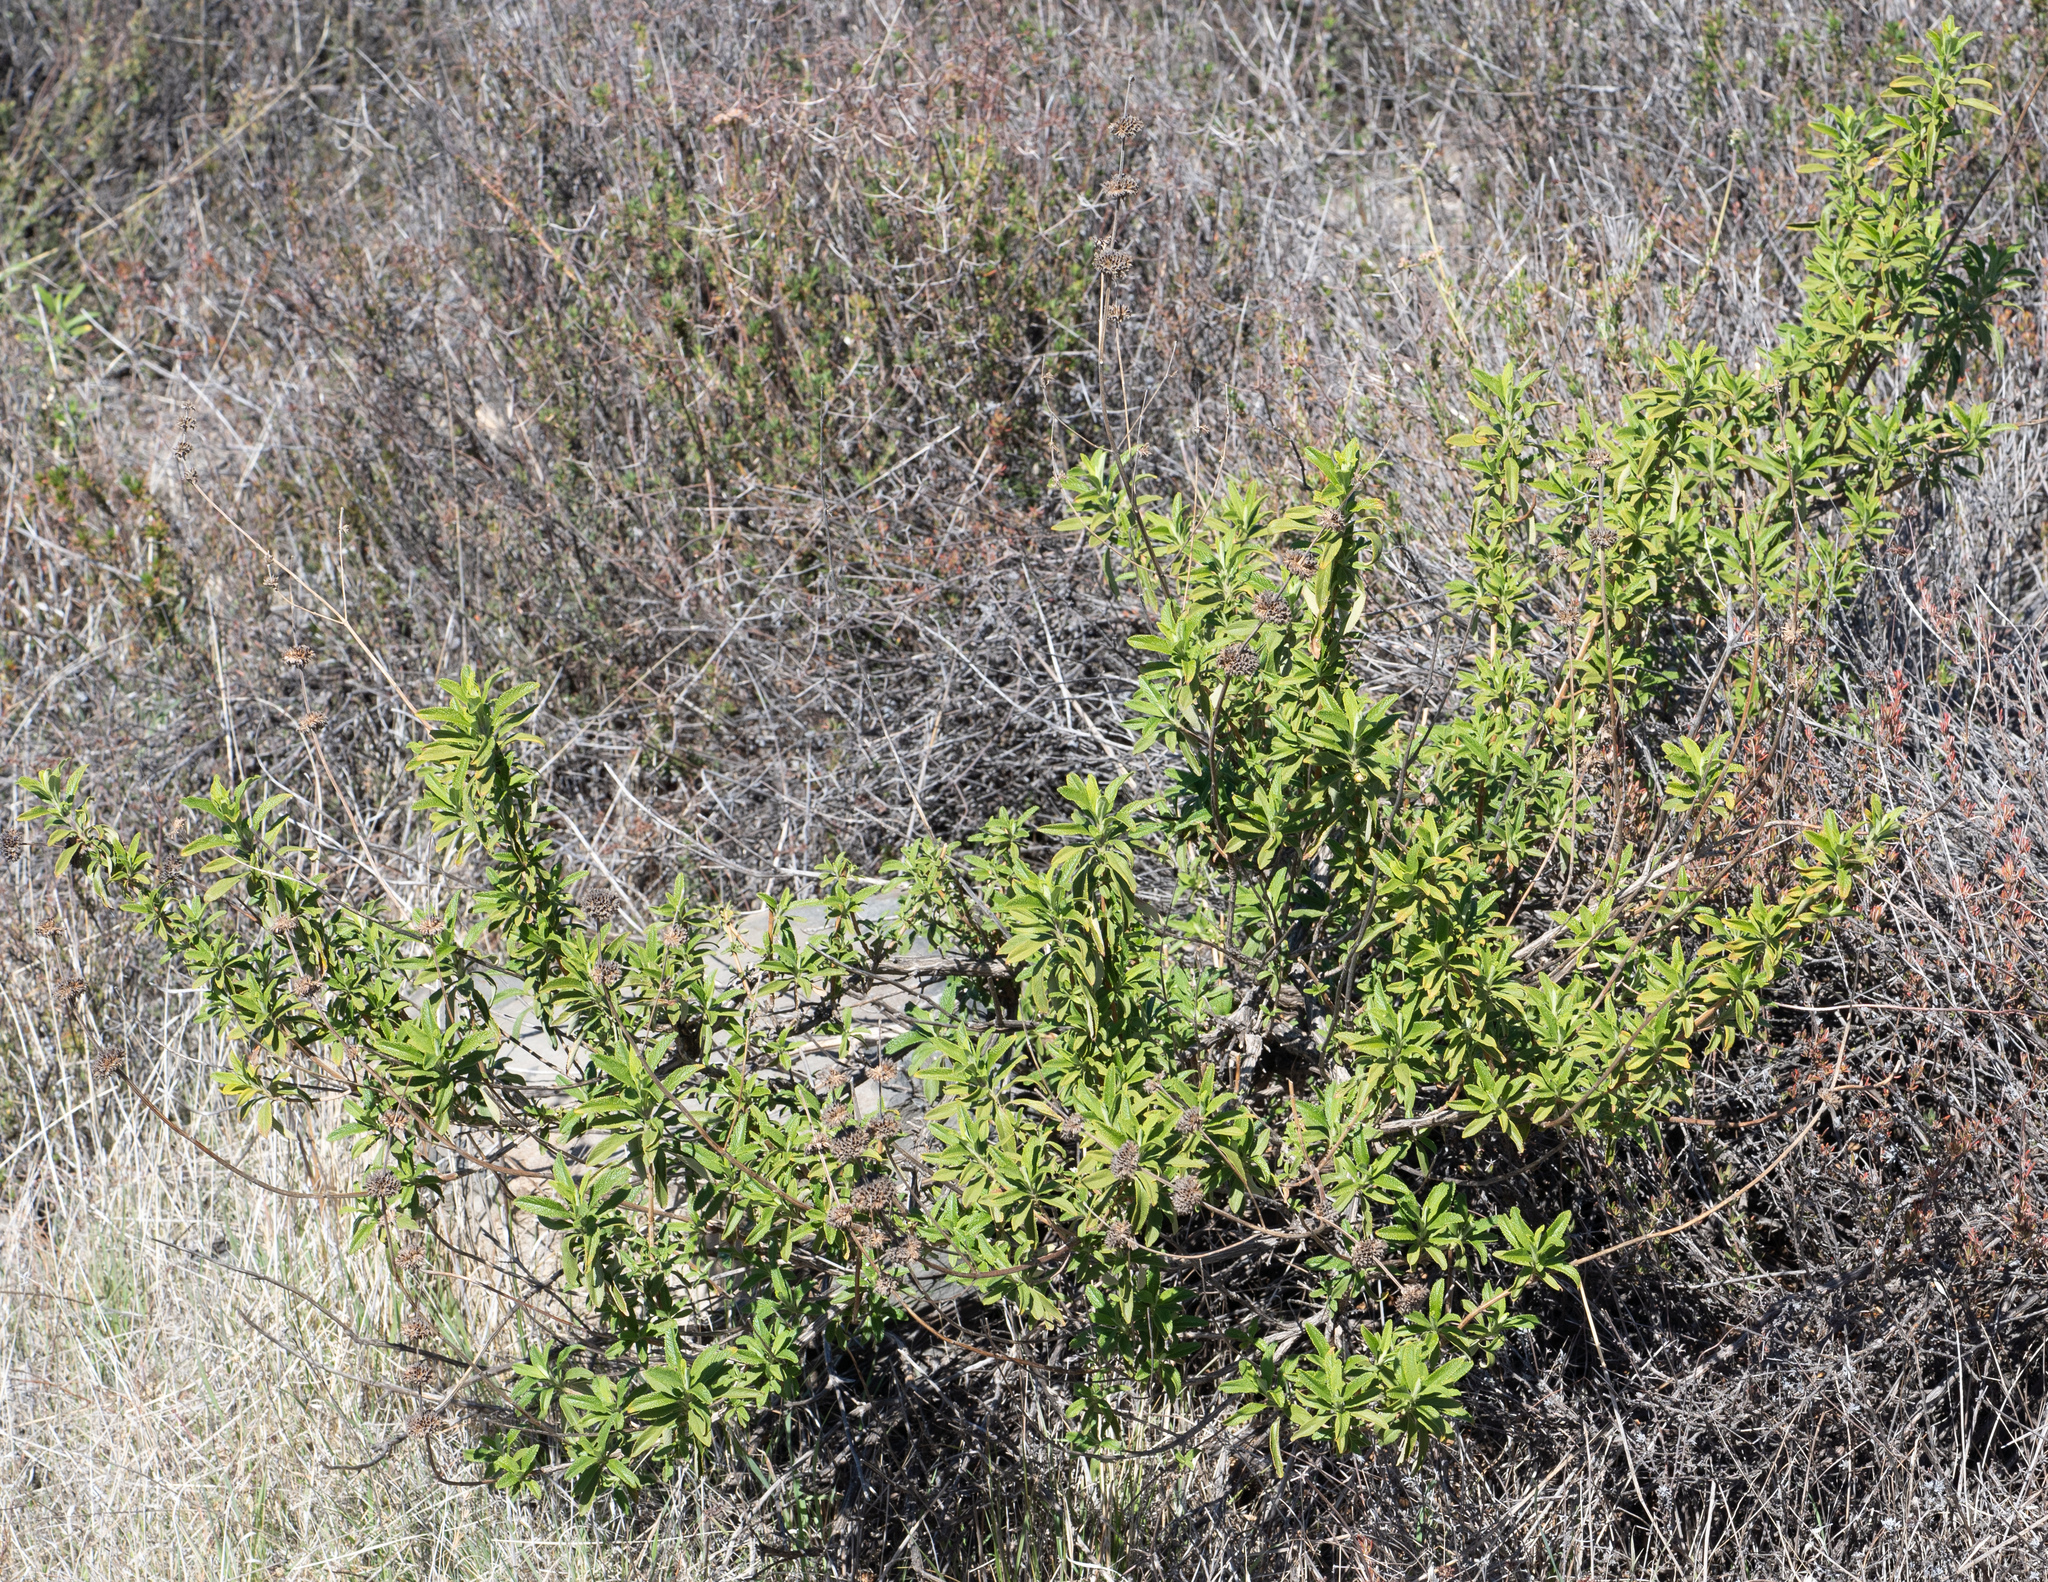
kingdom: Plantae
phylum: Tracheophyta
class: Magnoliopsida
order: Lamiales
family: Lamiaceae
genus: Salvia
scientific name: Salvia mellifera
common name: Black sage
